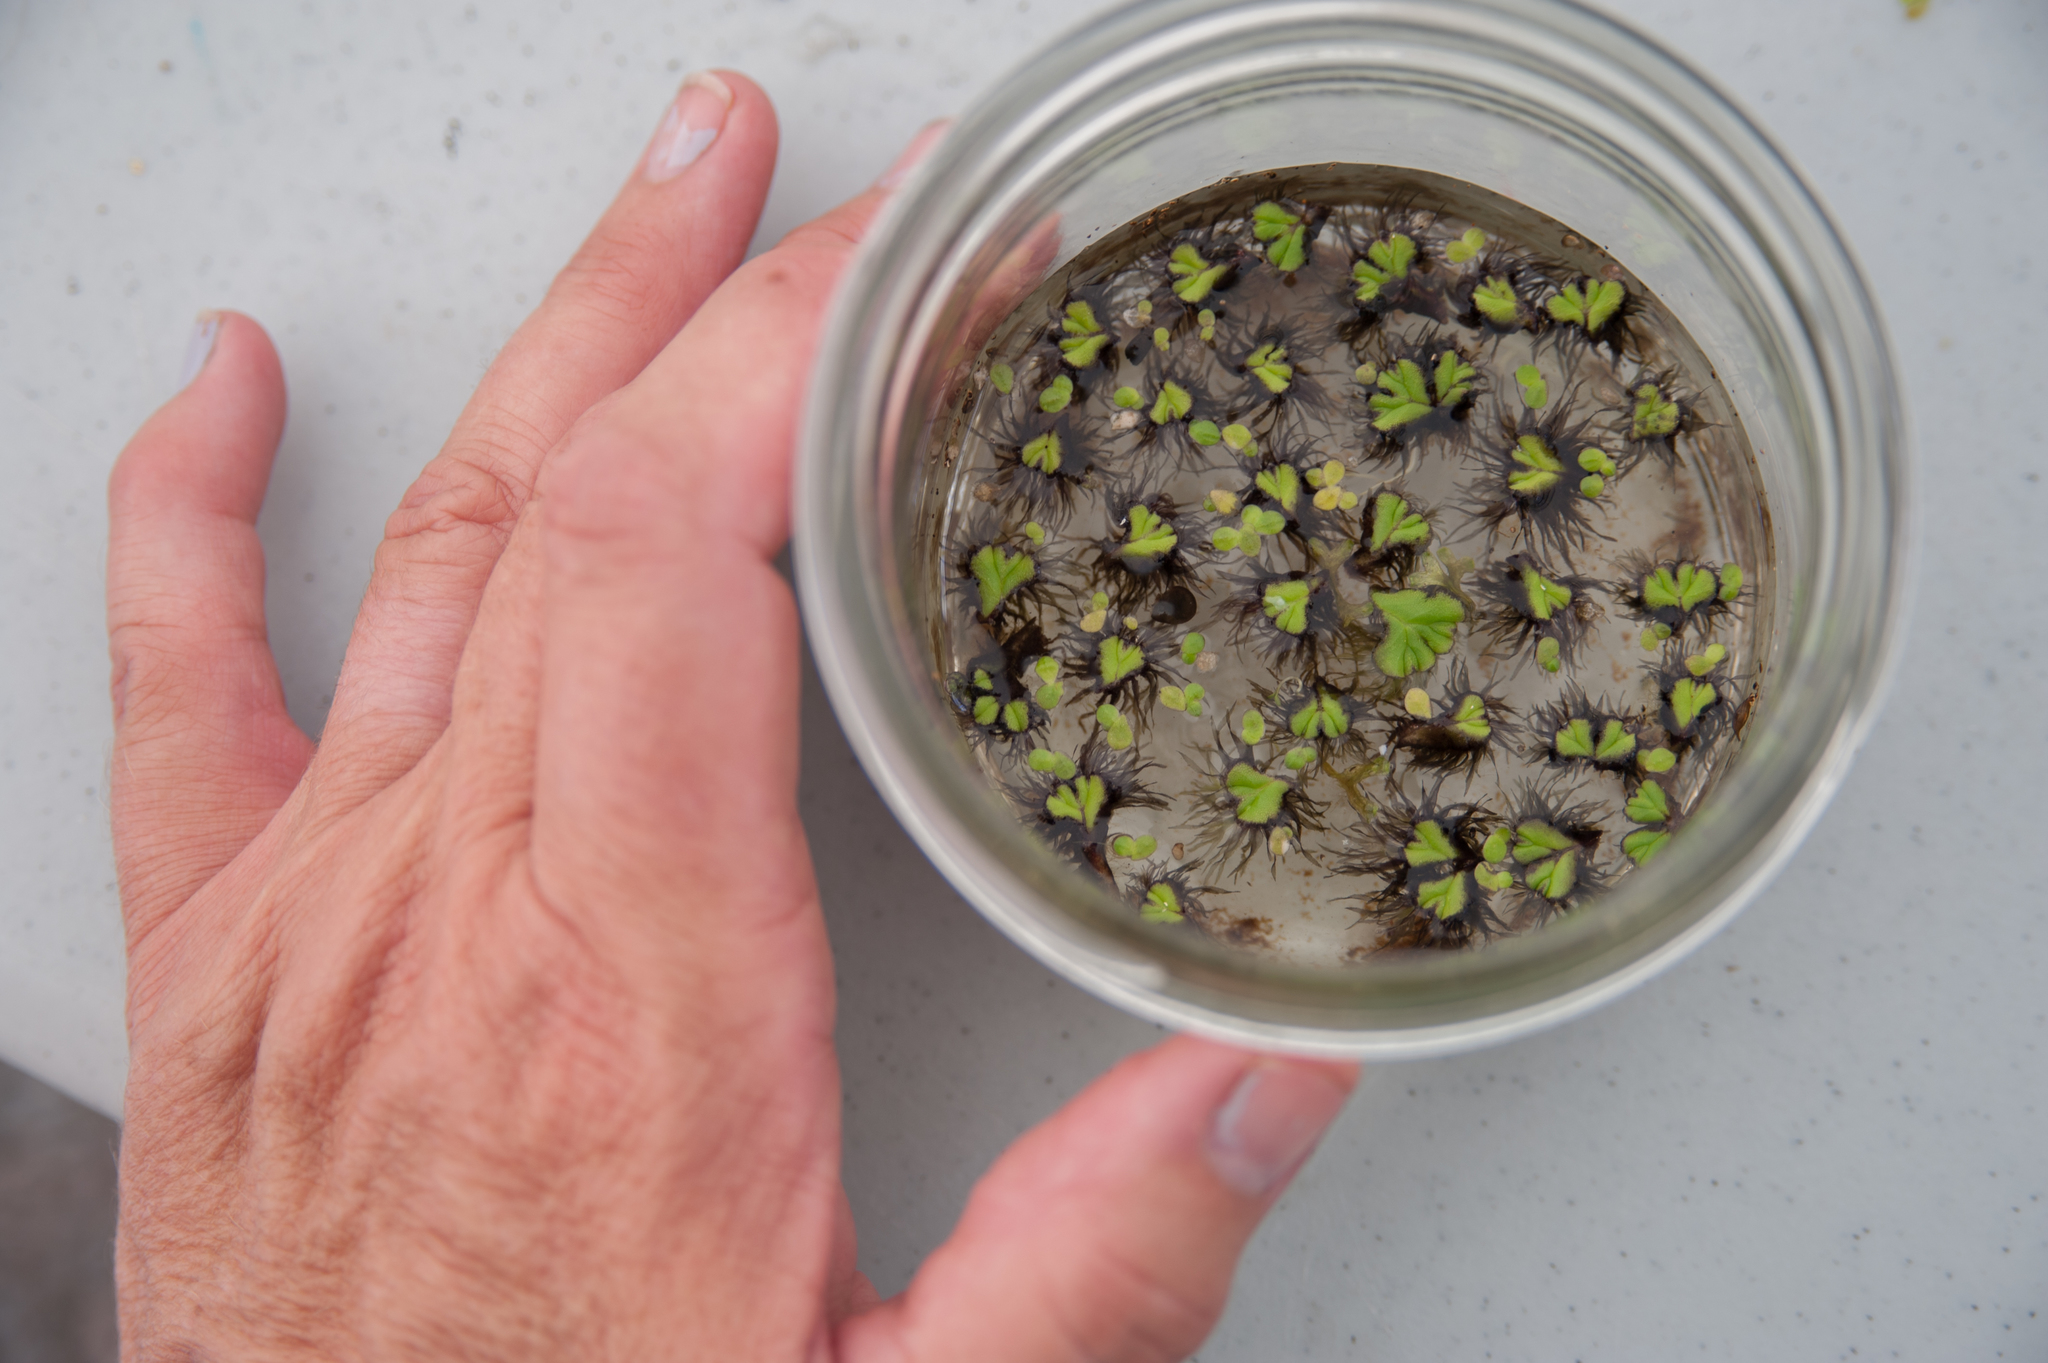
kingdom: Plantae
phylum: Marchantiophyta
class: Marchantiopsida
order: Marchantiales
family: Ricciaceae
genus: Ricciocarpos
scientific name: Ricciocarpos natans
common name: Purple-fringed liverwort
